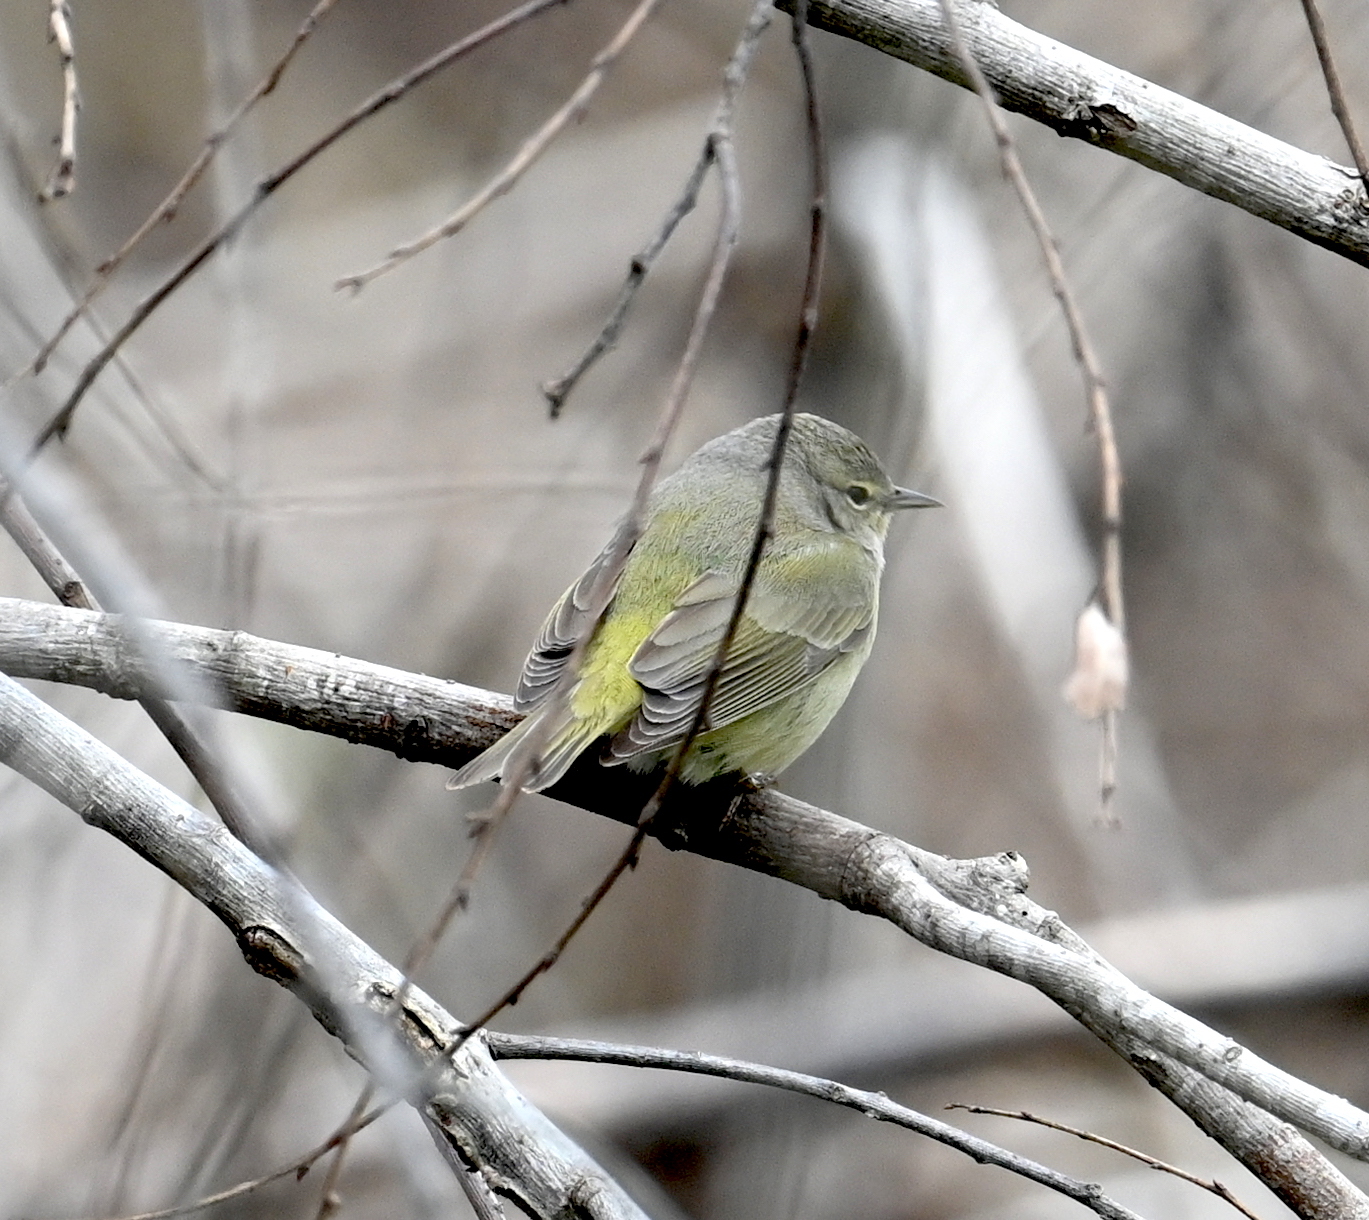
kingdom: Animalia
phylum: Chordata
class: Aves
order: Passeriformes
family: Parulidae
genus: Leiothlypis
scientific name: Leiothlypis celata
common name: Orange-crowned warbler
